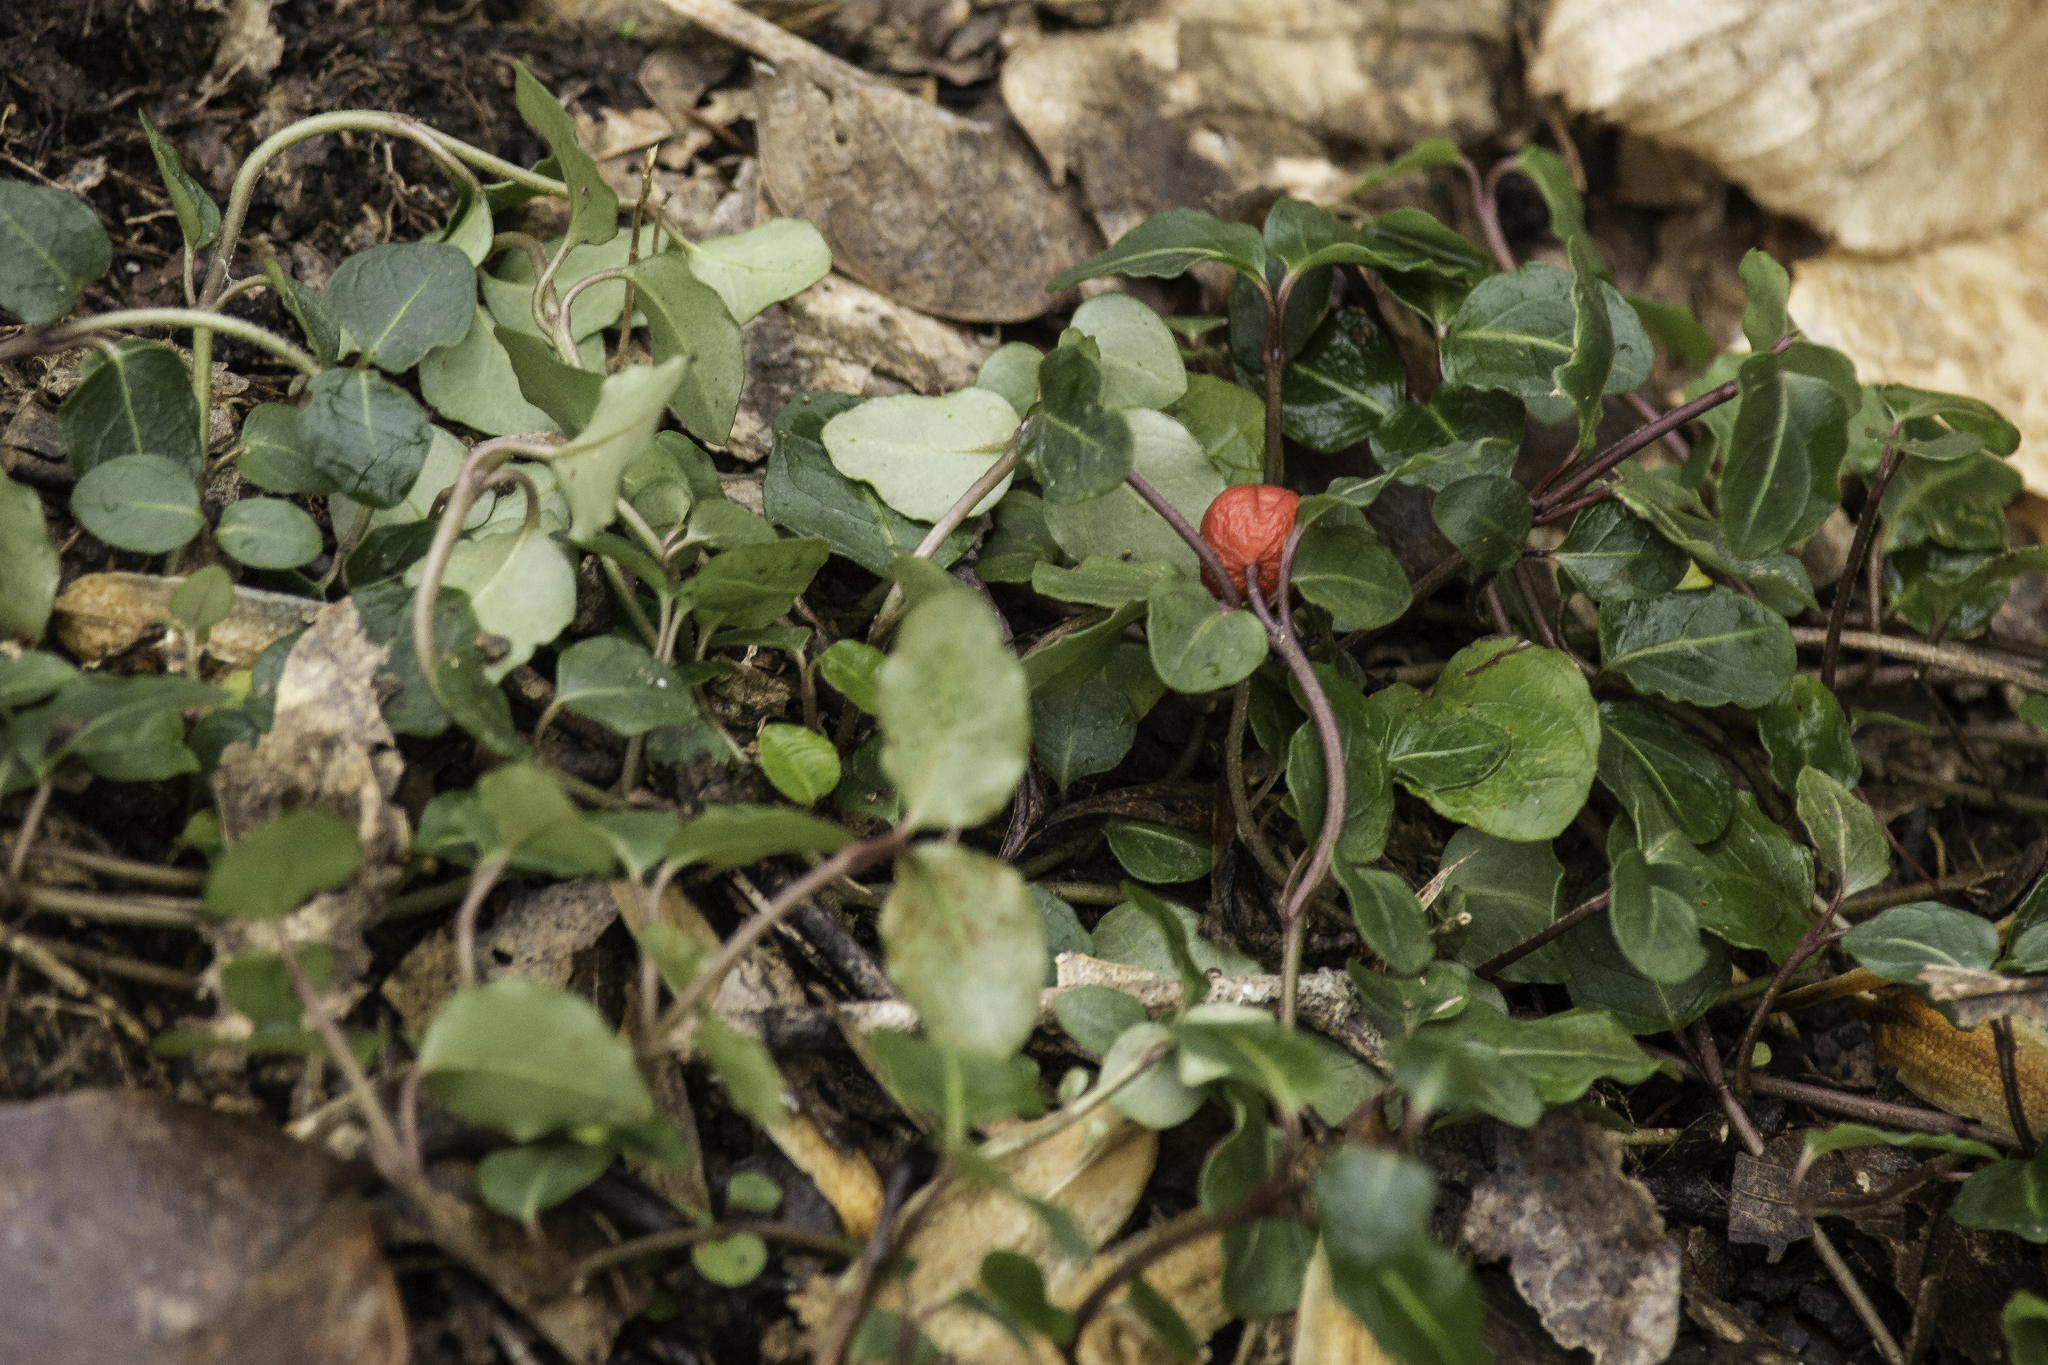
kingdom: Plantae
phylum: Tracheophyta
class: Magnoliopsida
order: Gentianales
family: Rubiaceae
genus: Mitchella
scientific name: Mitchella repens
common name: Partridge-berry
